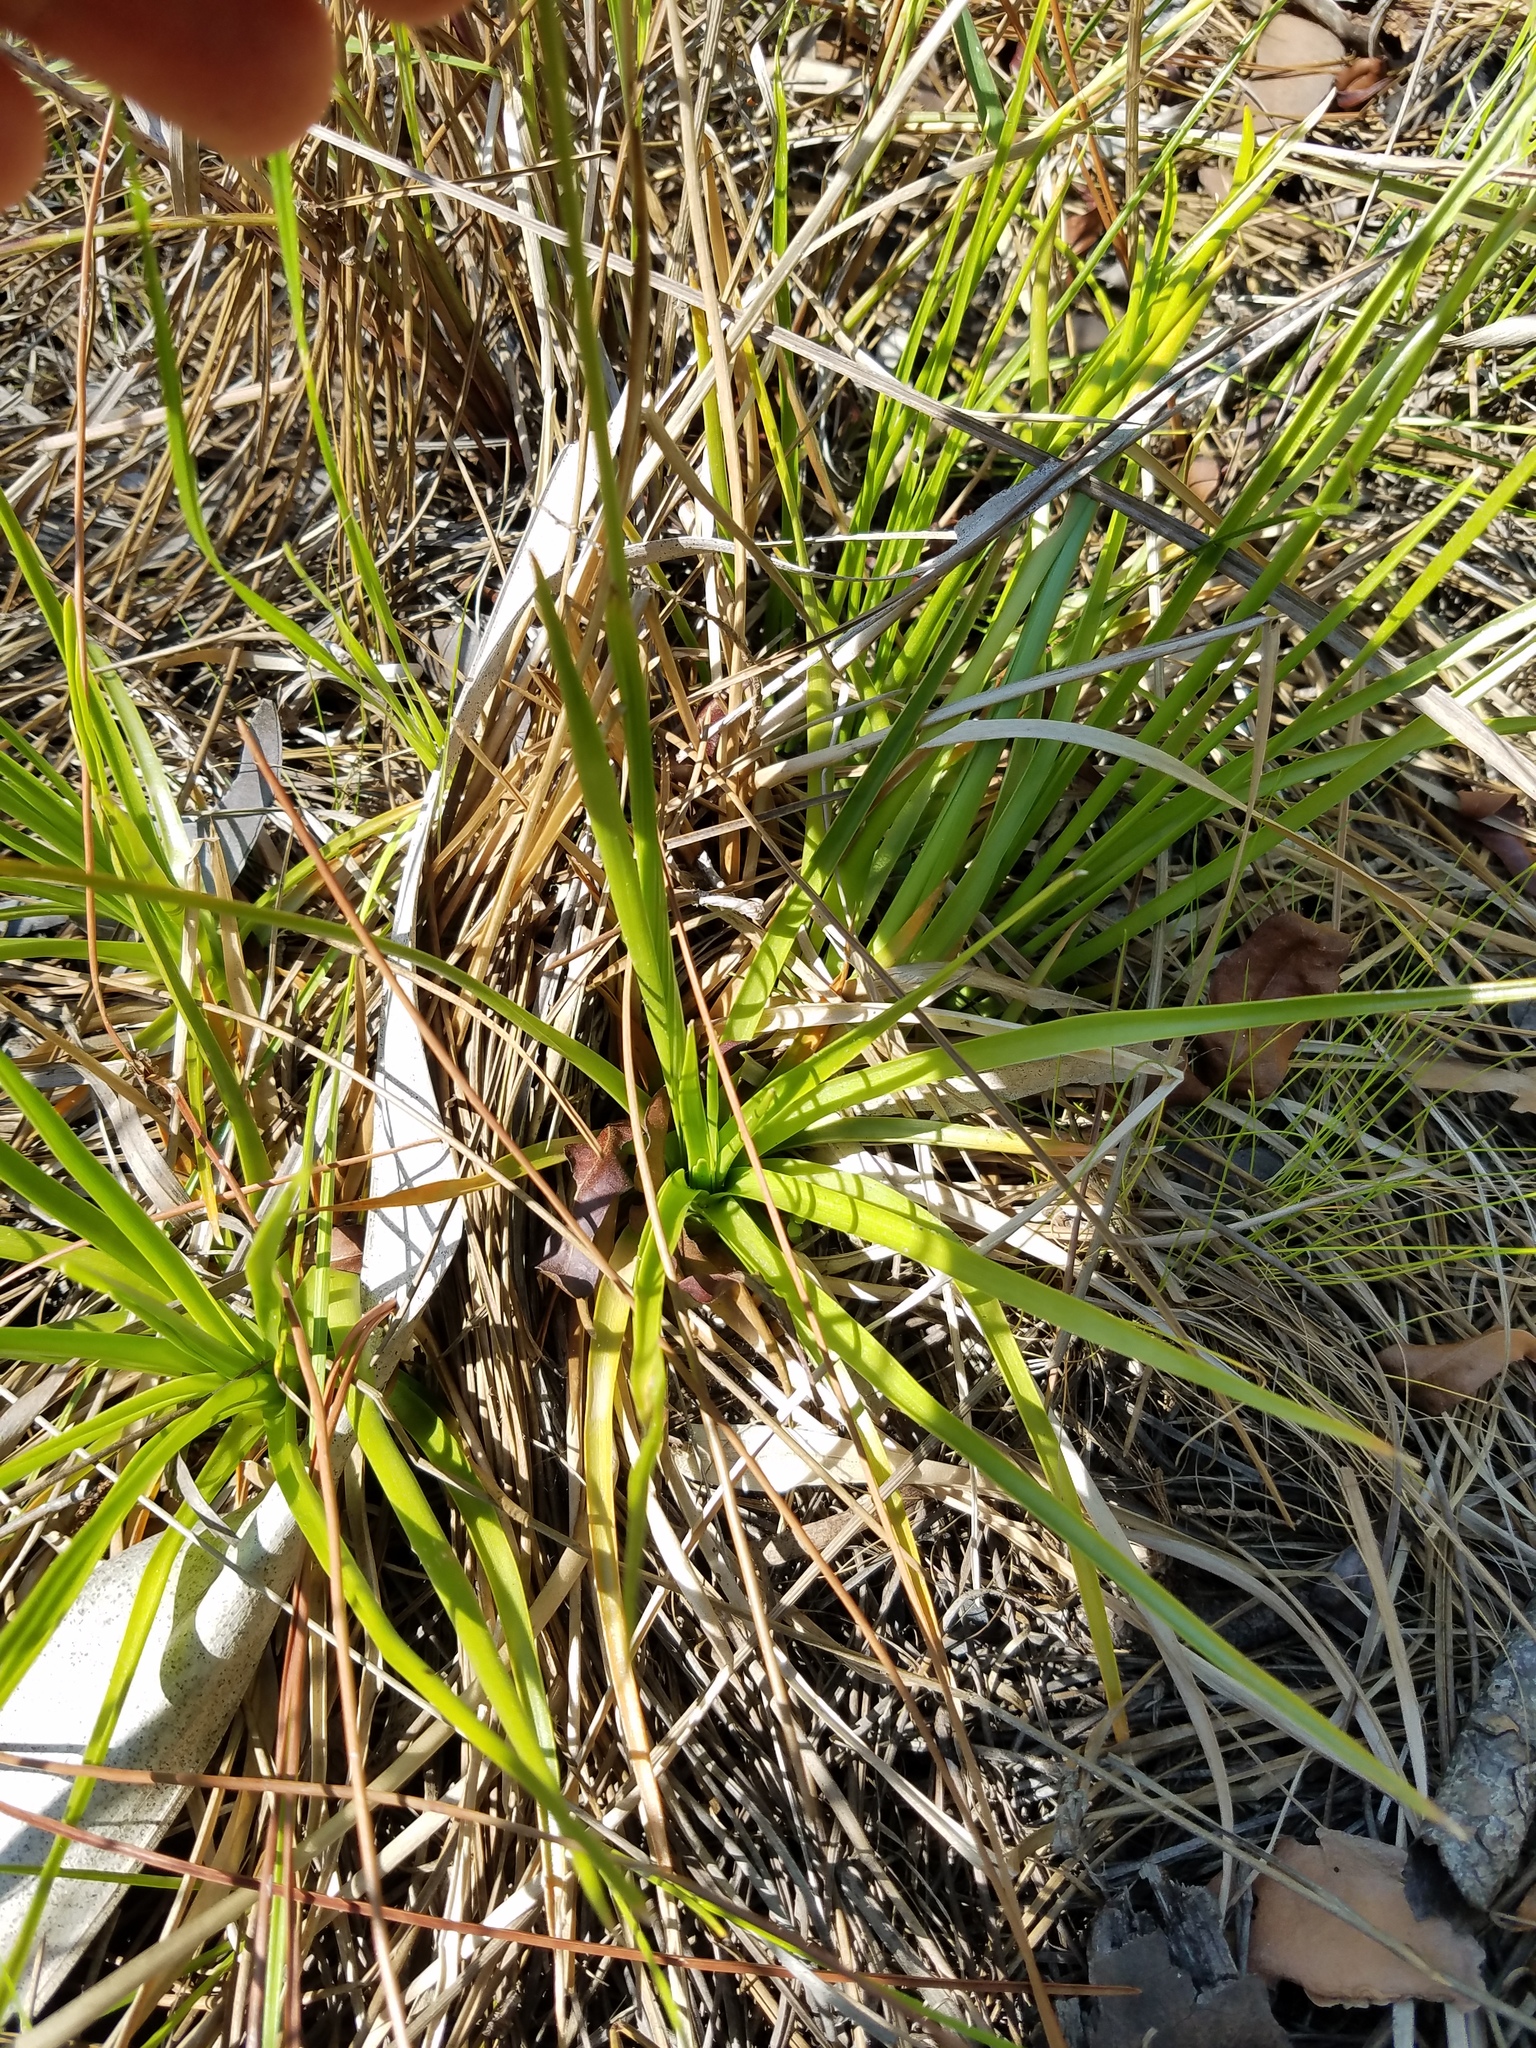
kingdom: Plantae
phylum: Tracheophyta
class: Liliopsida
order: Poales
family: Eriocaulaceae
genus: Eriocaulon
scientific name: Eriocaulon decangulare
